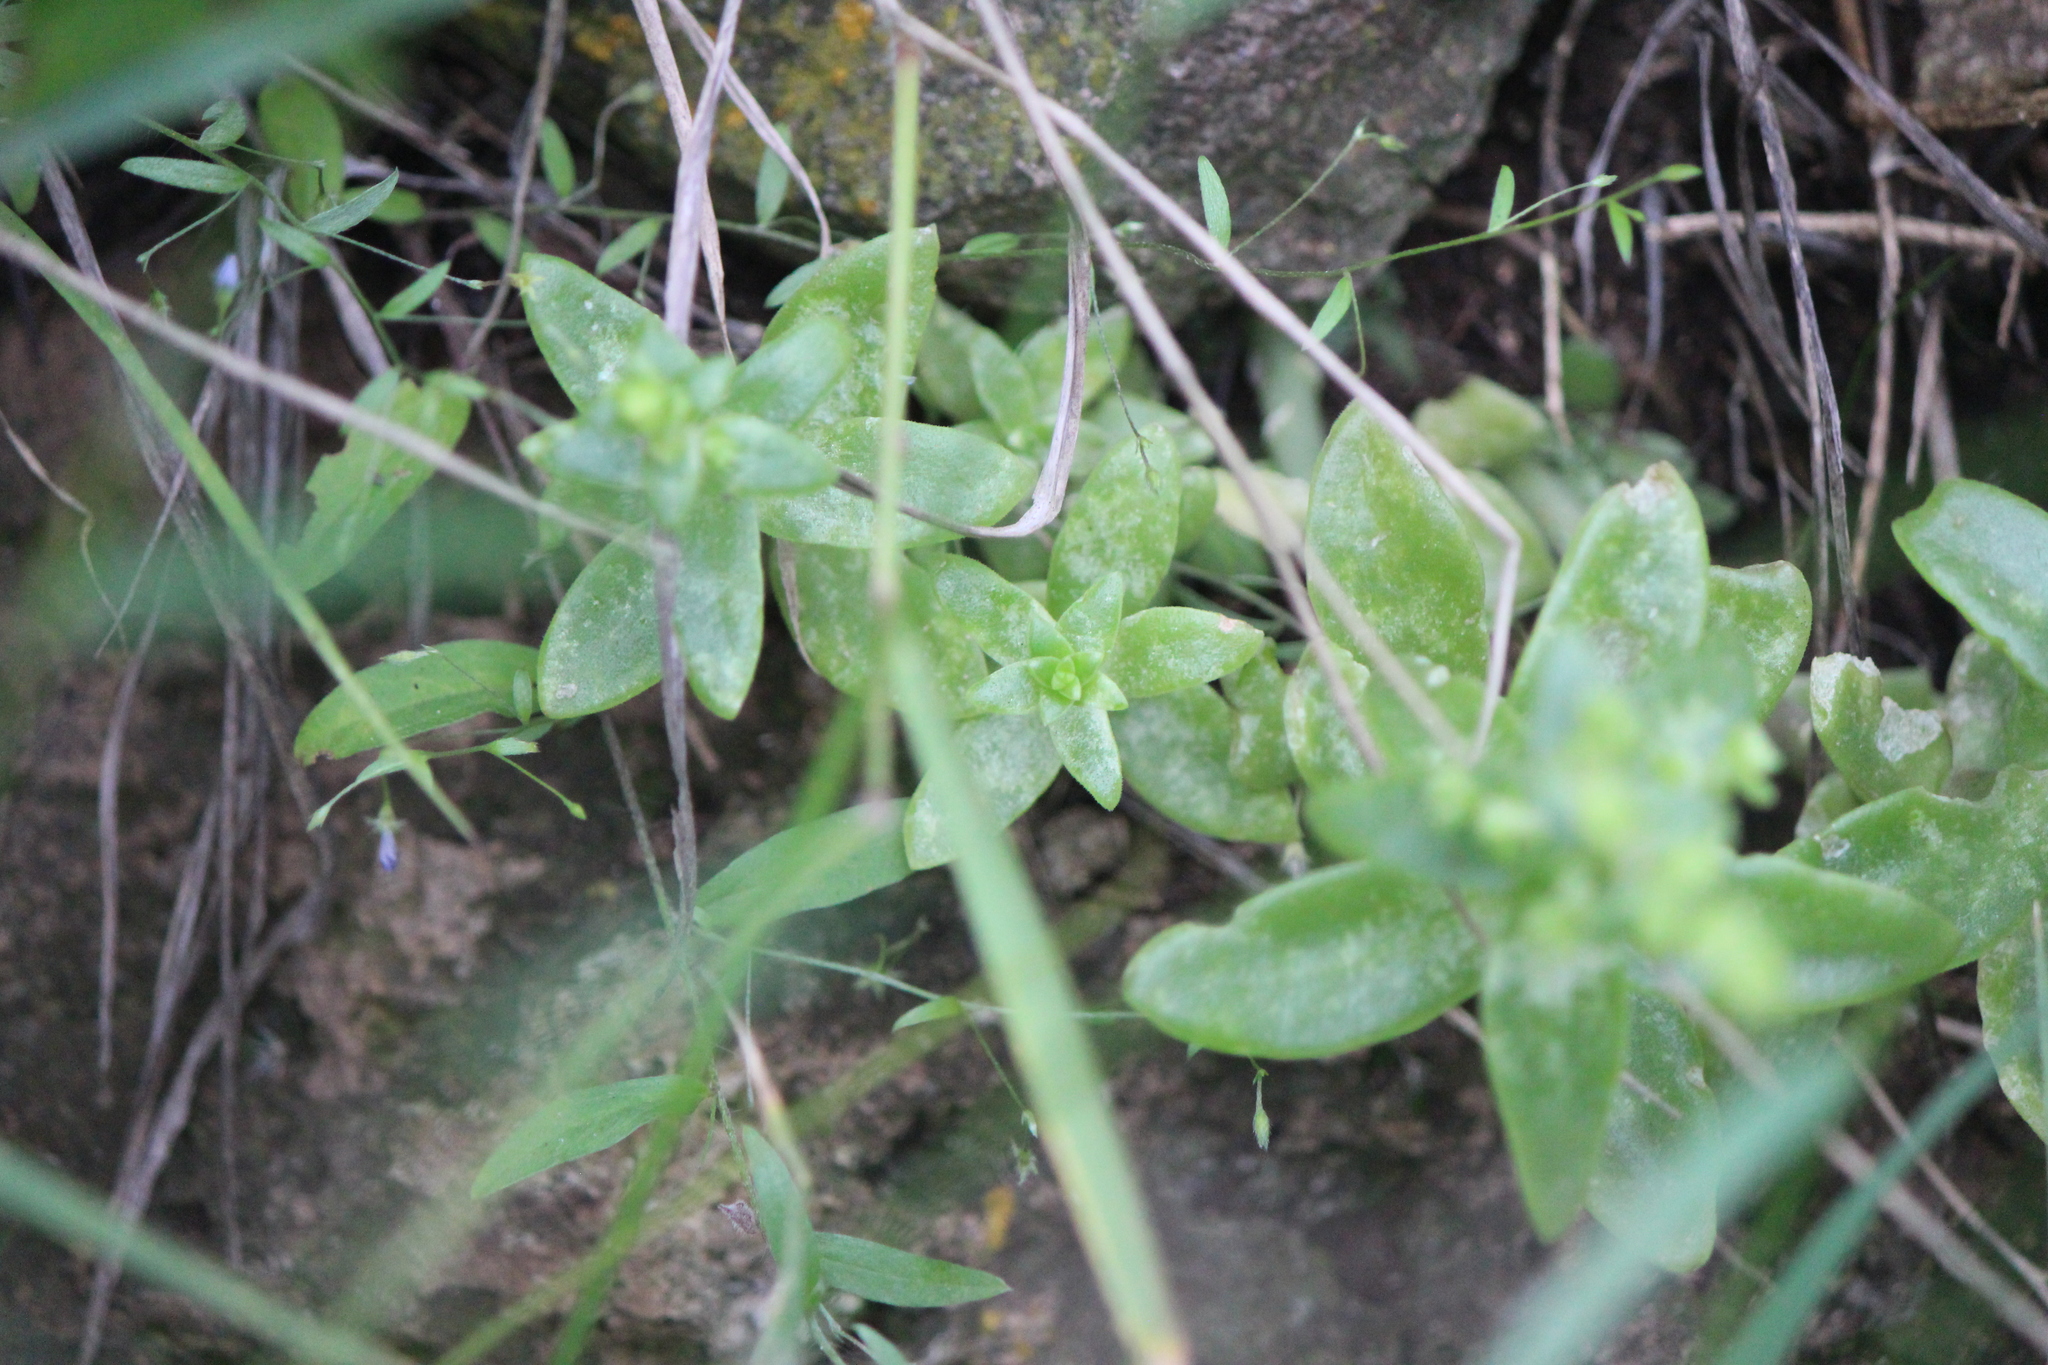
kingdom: Plantae
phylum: Tracheophyta
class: Magnoliopsida
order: Saxifragales
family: Crassulaceae
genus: Sedum
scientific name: Sedum ebracteatum
